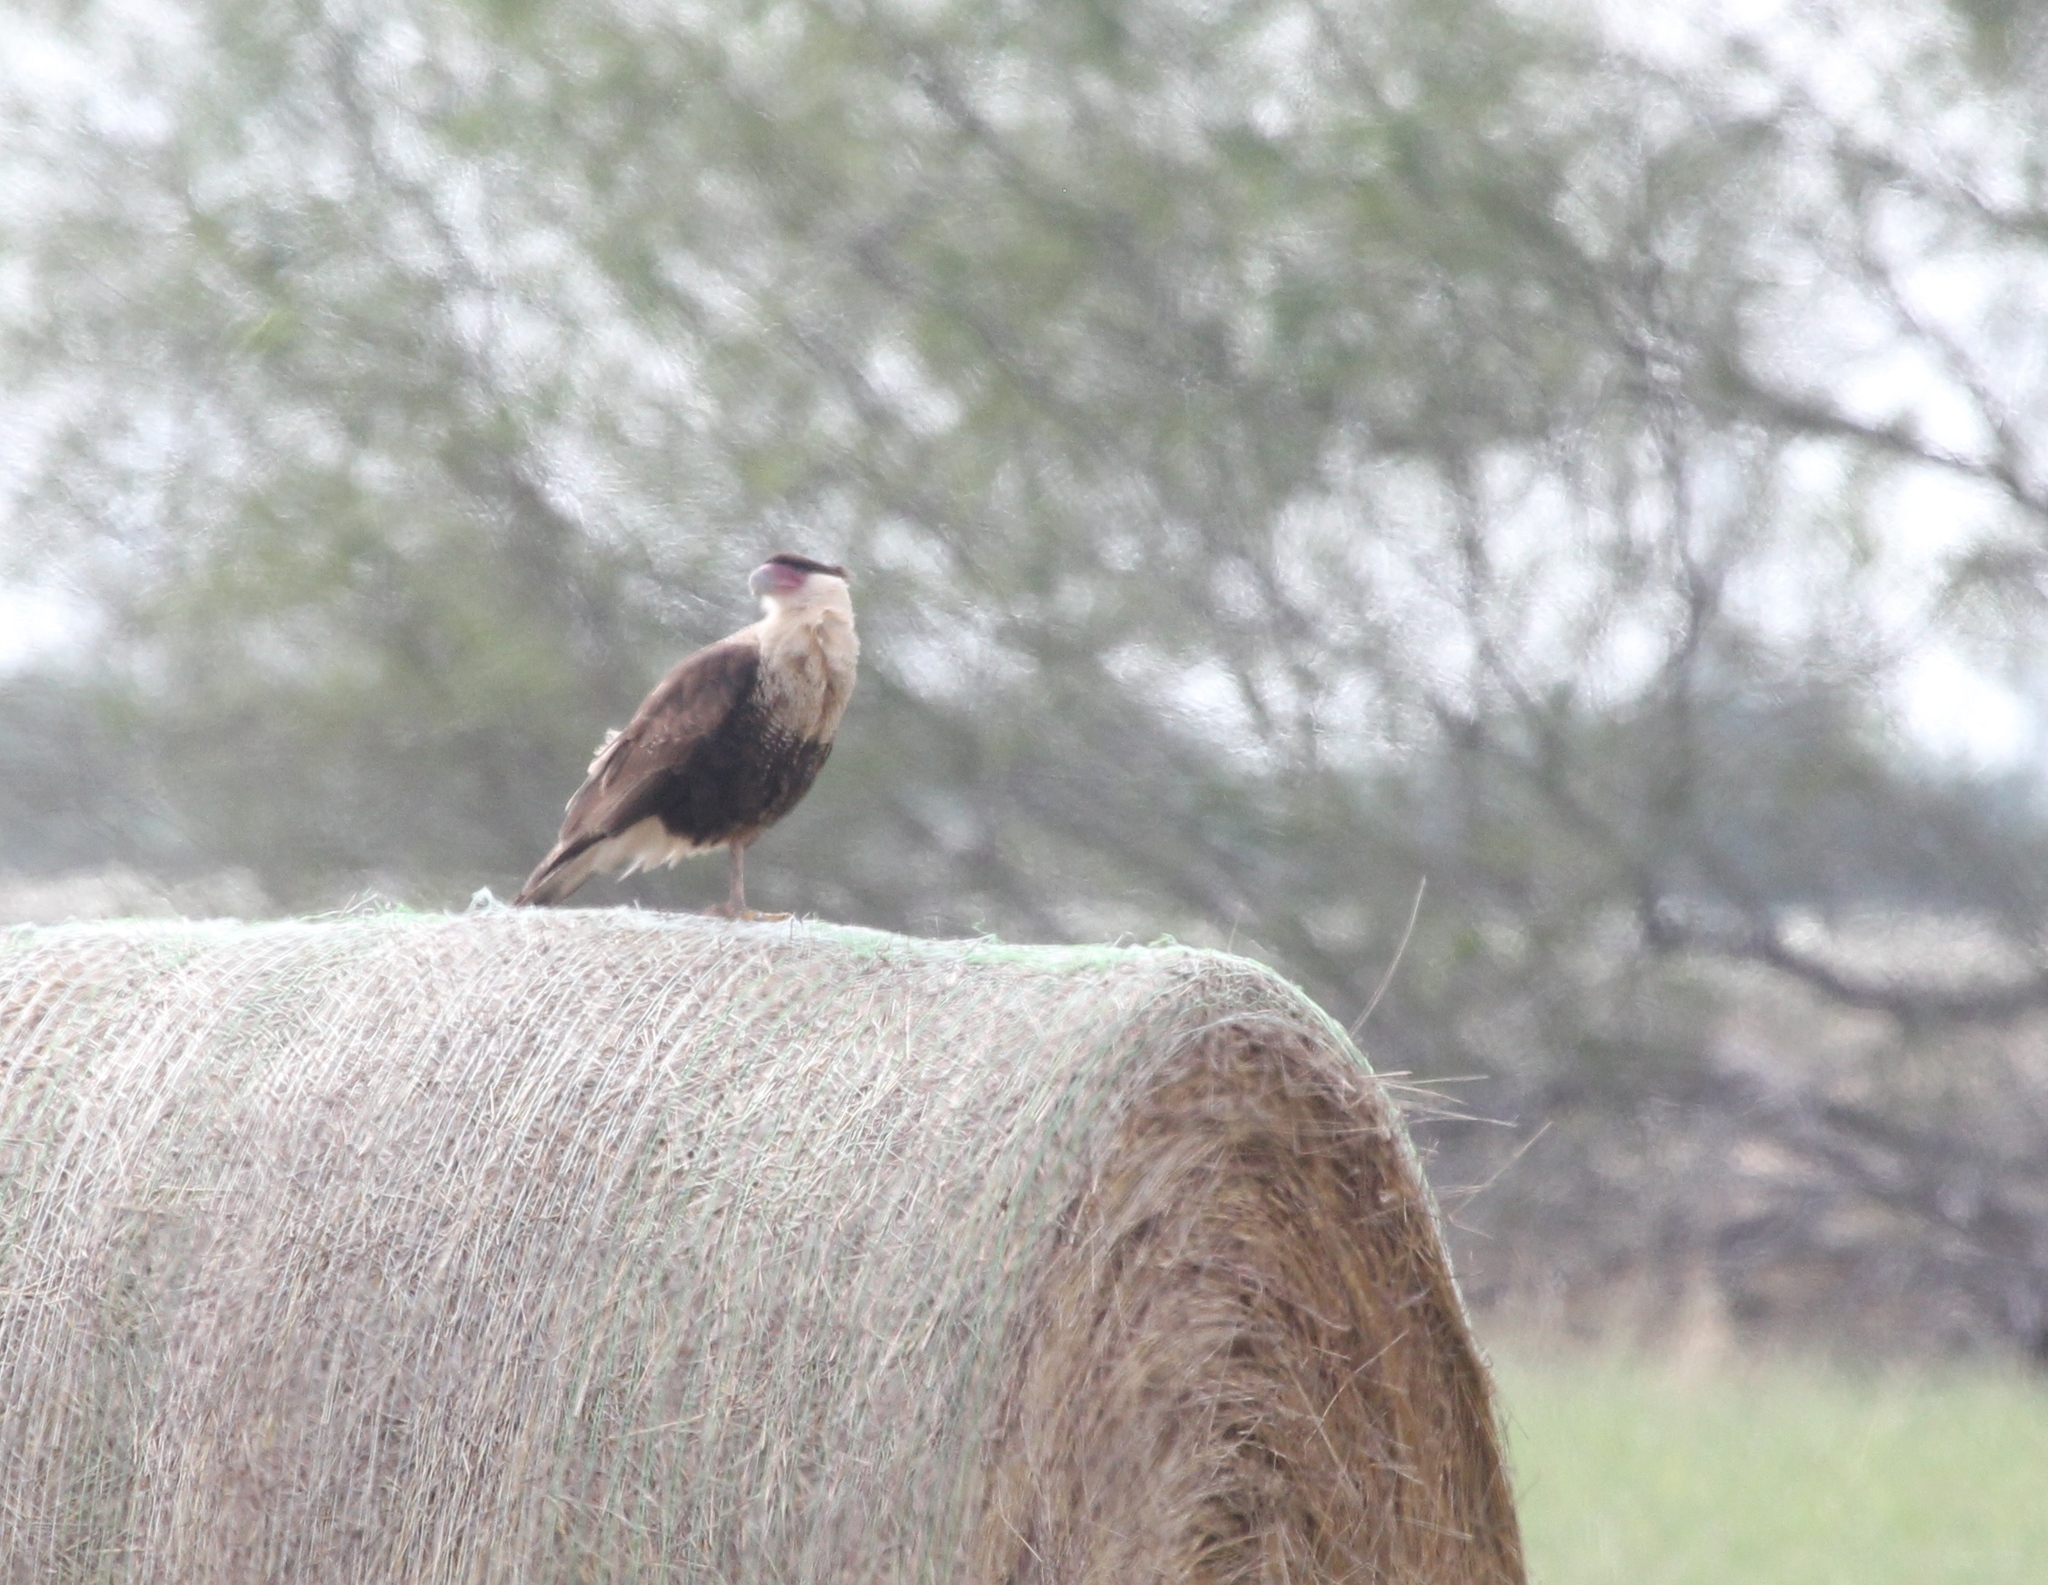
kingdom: Animalia
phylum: Chordata
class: Aves
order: Falconiformes
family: Falconidae
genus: Caracara
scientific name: Caracara plancus
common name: Southern caracara
